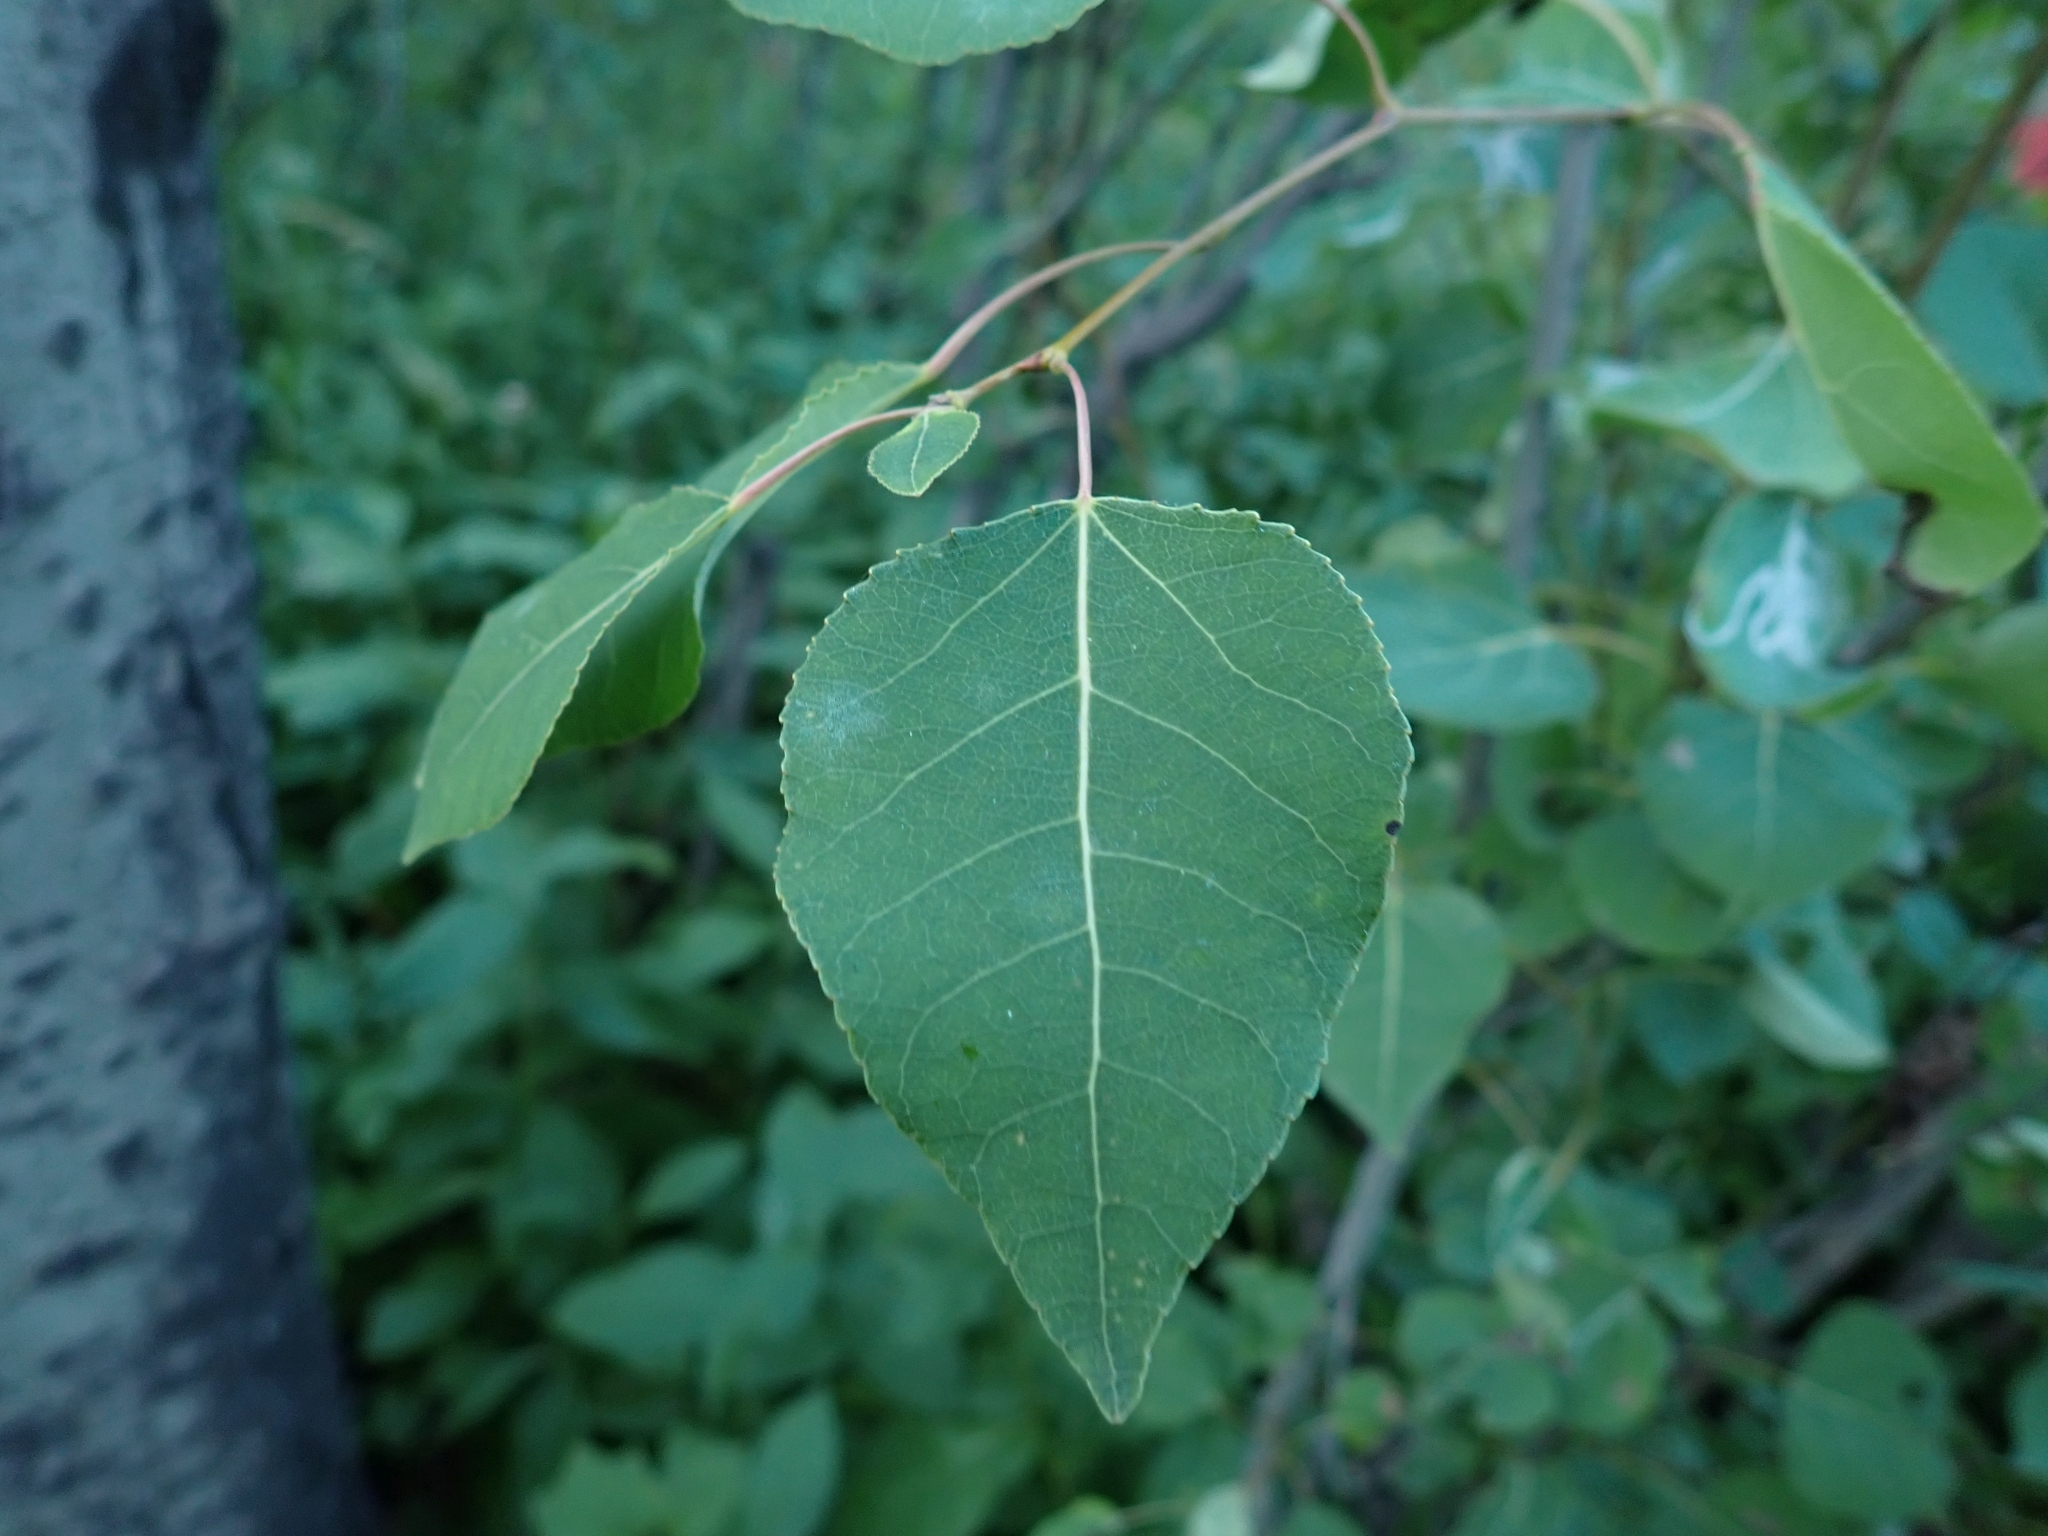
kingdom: Plantae
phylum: Tracheophyta
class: Magnoliopsida
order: Malpighiales
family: Salicaceae
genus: Populus
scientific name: Populus tremuloides
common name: Quaking aspen
